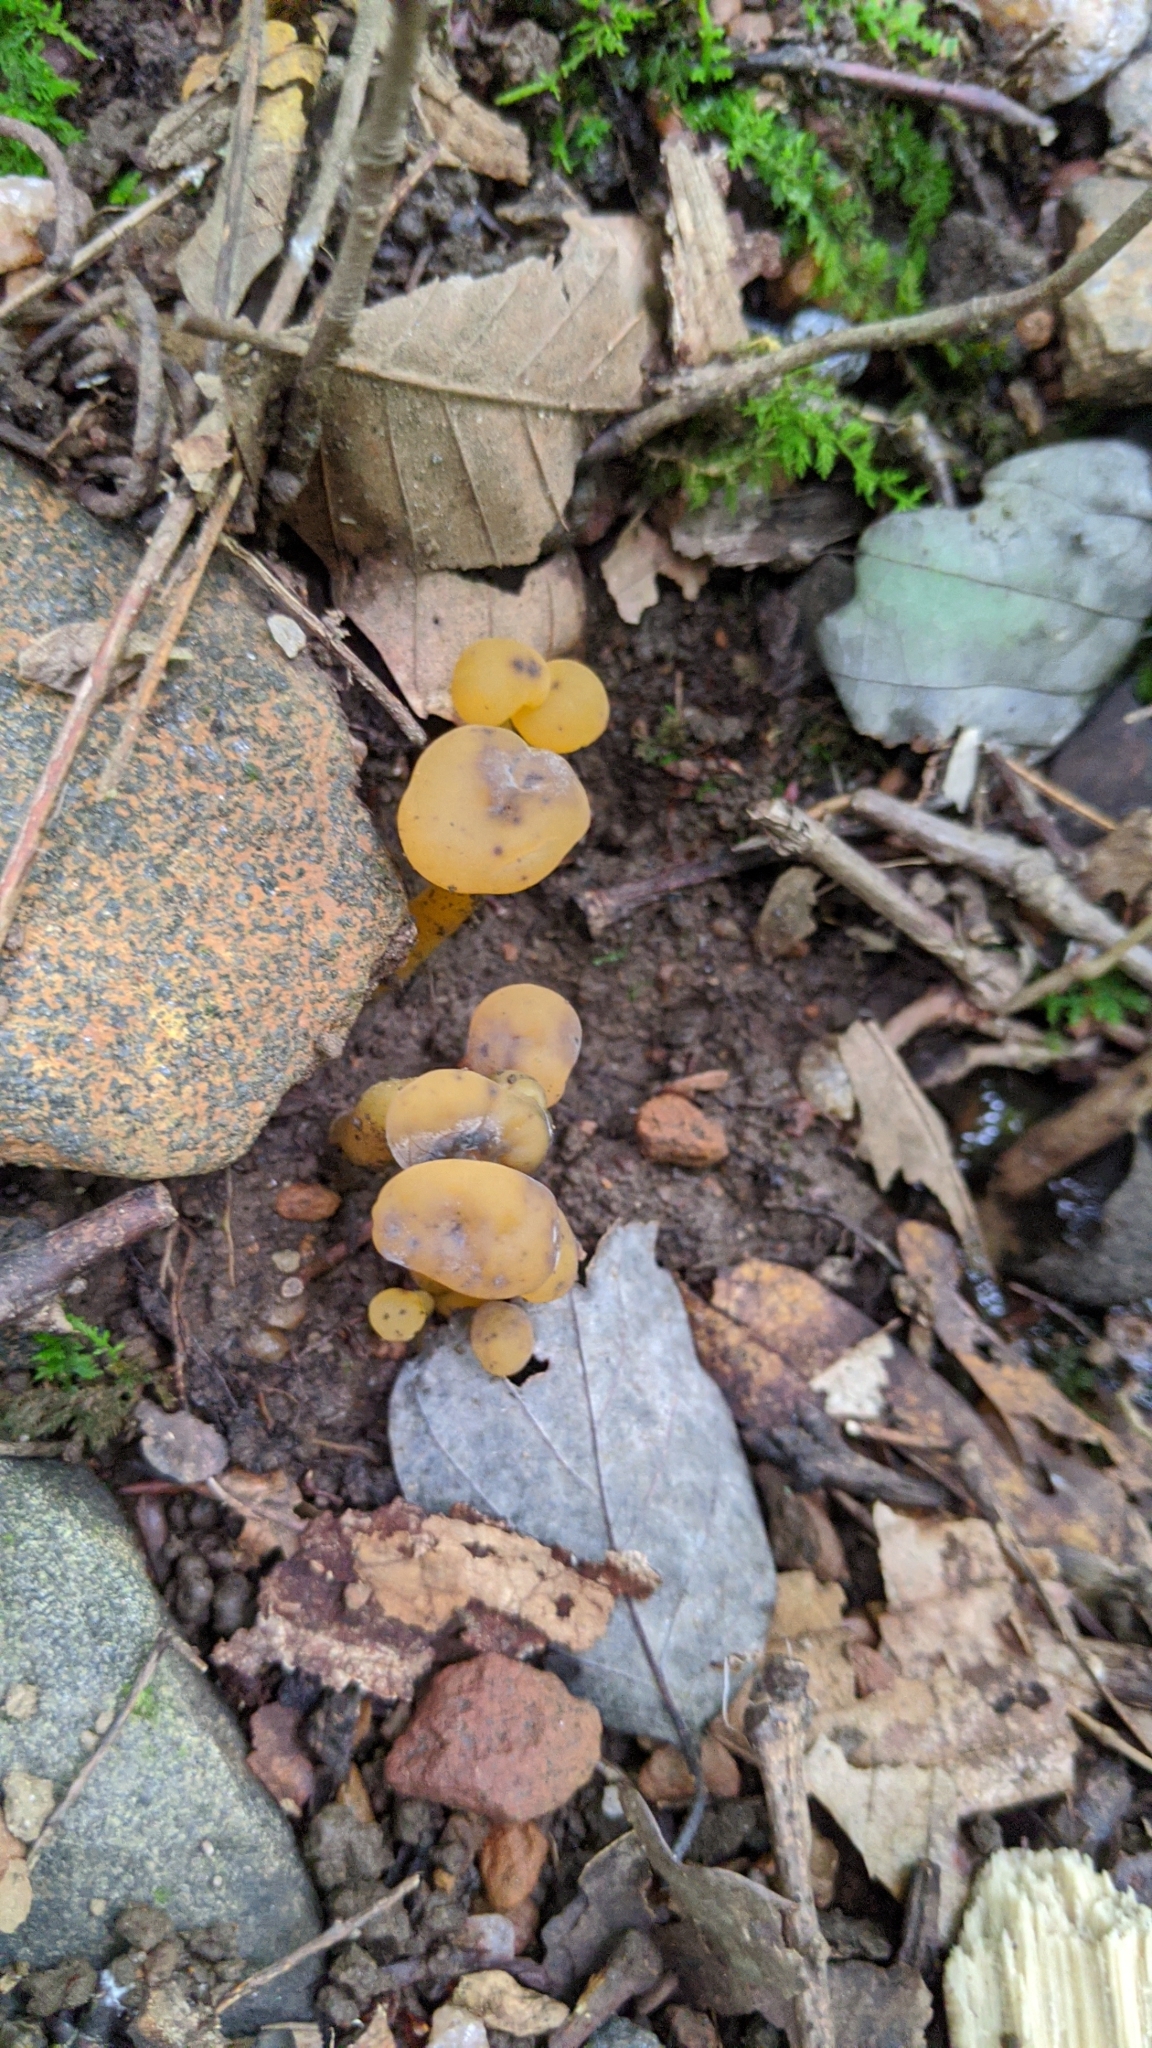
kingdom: Fungi
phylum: Ascomycota
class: Leotiomycetes
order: Leotiales
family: Leotiaceae
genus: Leotia
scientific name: Leotia lubrica
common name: Jellybaby
